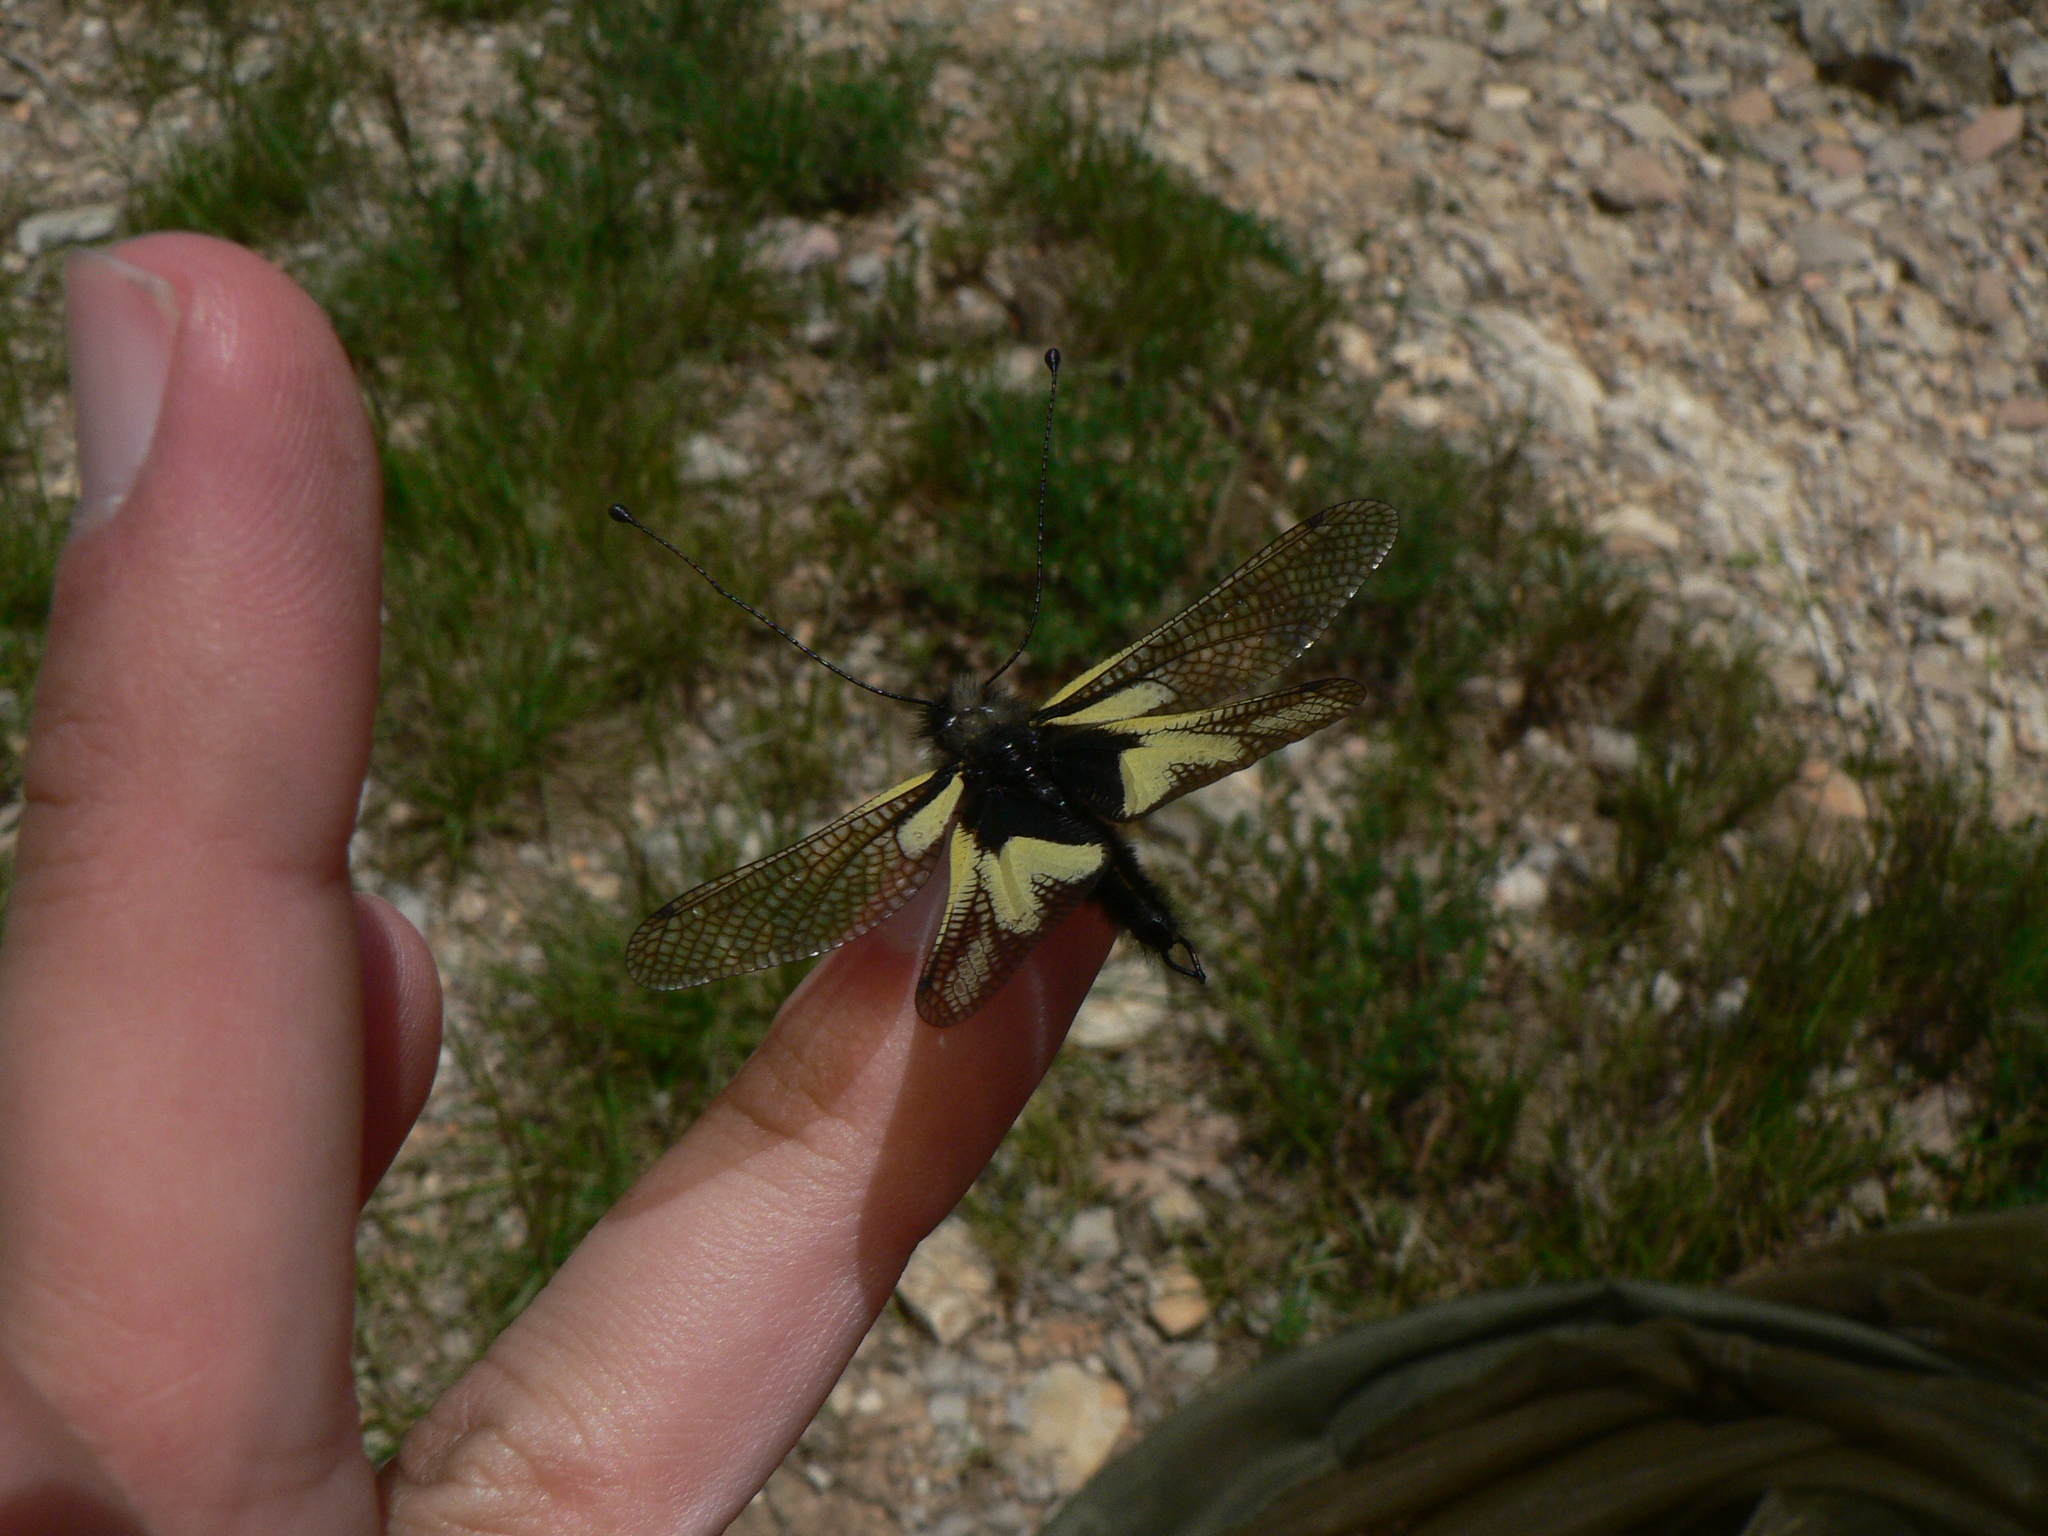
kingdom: Animalia
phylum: Arthropoda
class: Insecta
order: Neuroptera
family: Ascalaphidae
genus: Libelloides
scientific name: Libelloides coccajus
